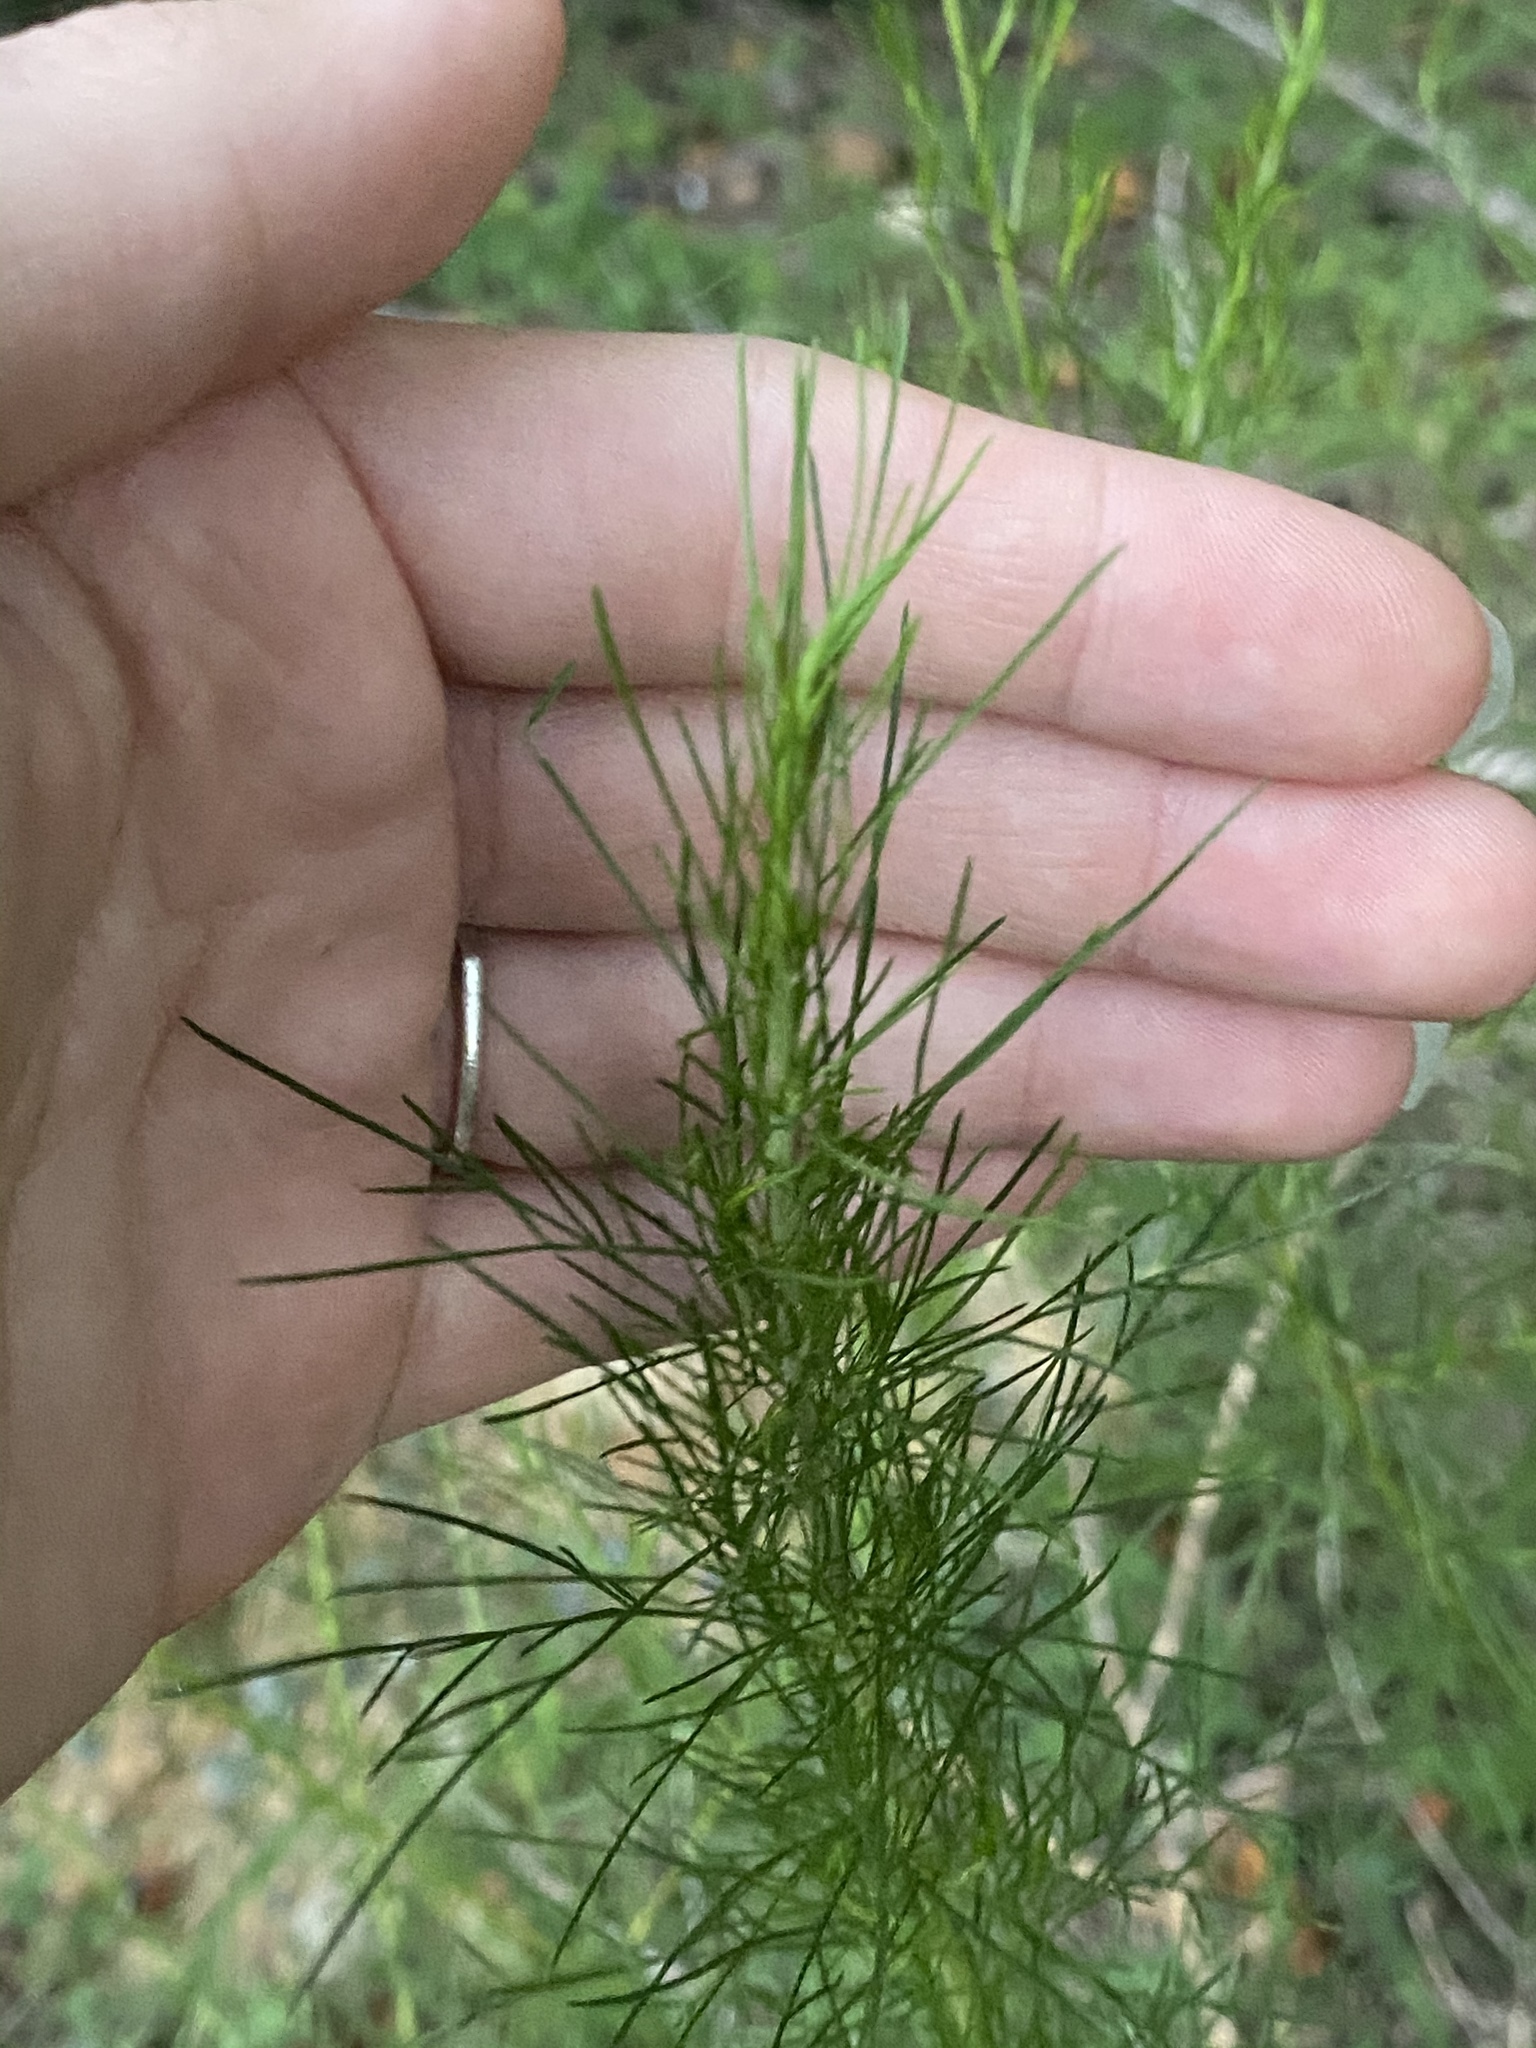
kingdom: Plantae
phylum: Tracheophyta
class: Magnoliopsida
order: Asterales
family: Asteraceae
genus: Eupatorium
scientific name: Eupatorium capillifolium
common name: Dog-fennel
